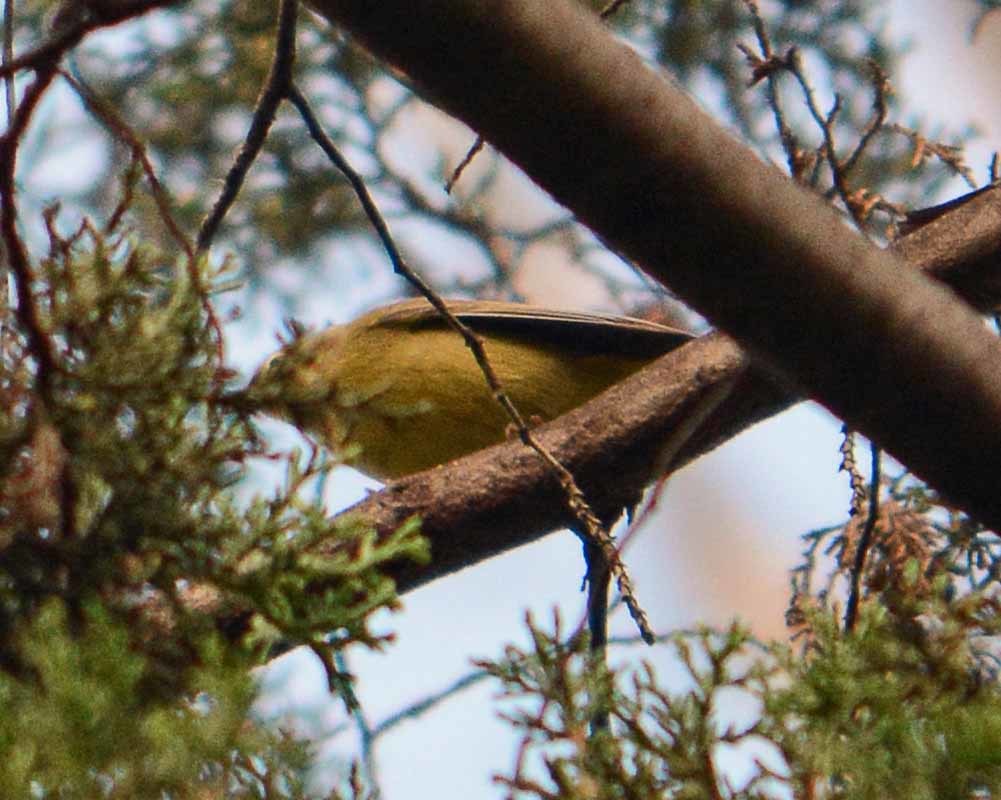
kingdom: Animalia
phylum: Chordata
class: Aves
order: Passeriformes
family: Parulidae
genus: Leiothlypis
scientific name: Leiothlypis celata
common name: Orange-crowned warbler
